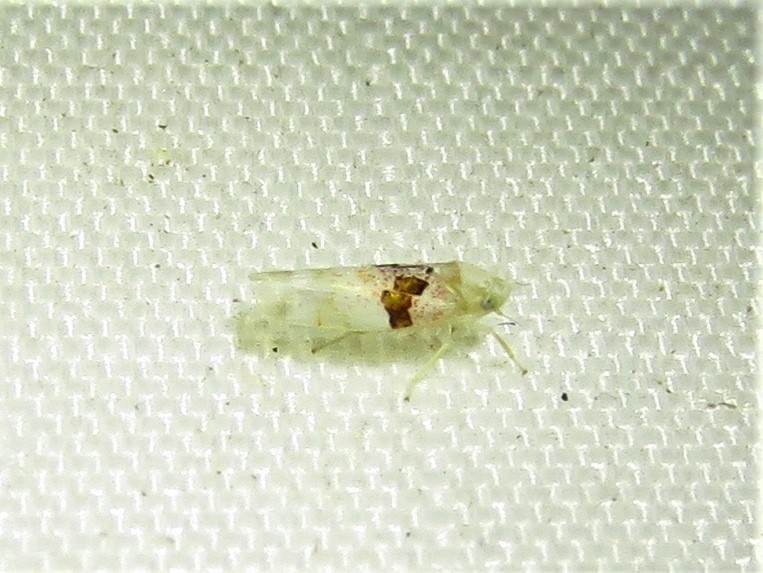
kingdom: Animalia
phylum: Arthropoda
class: Insecta
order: Hemiptera
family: Cicadellidae
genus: Hymetta
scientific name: Hymetta balteata
